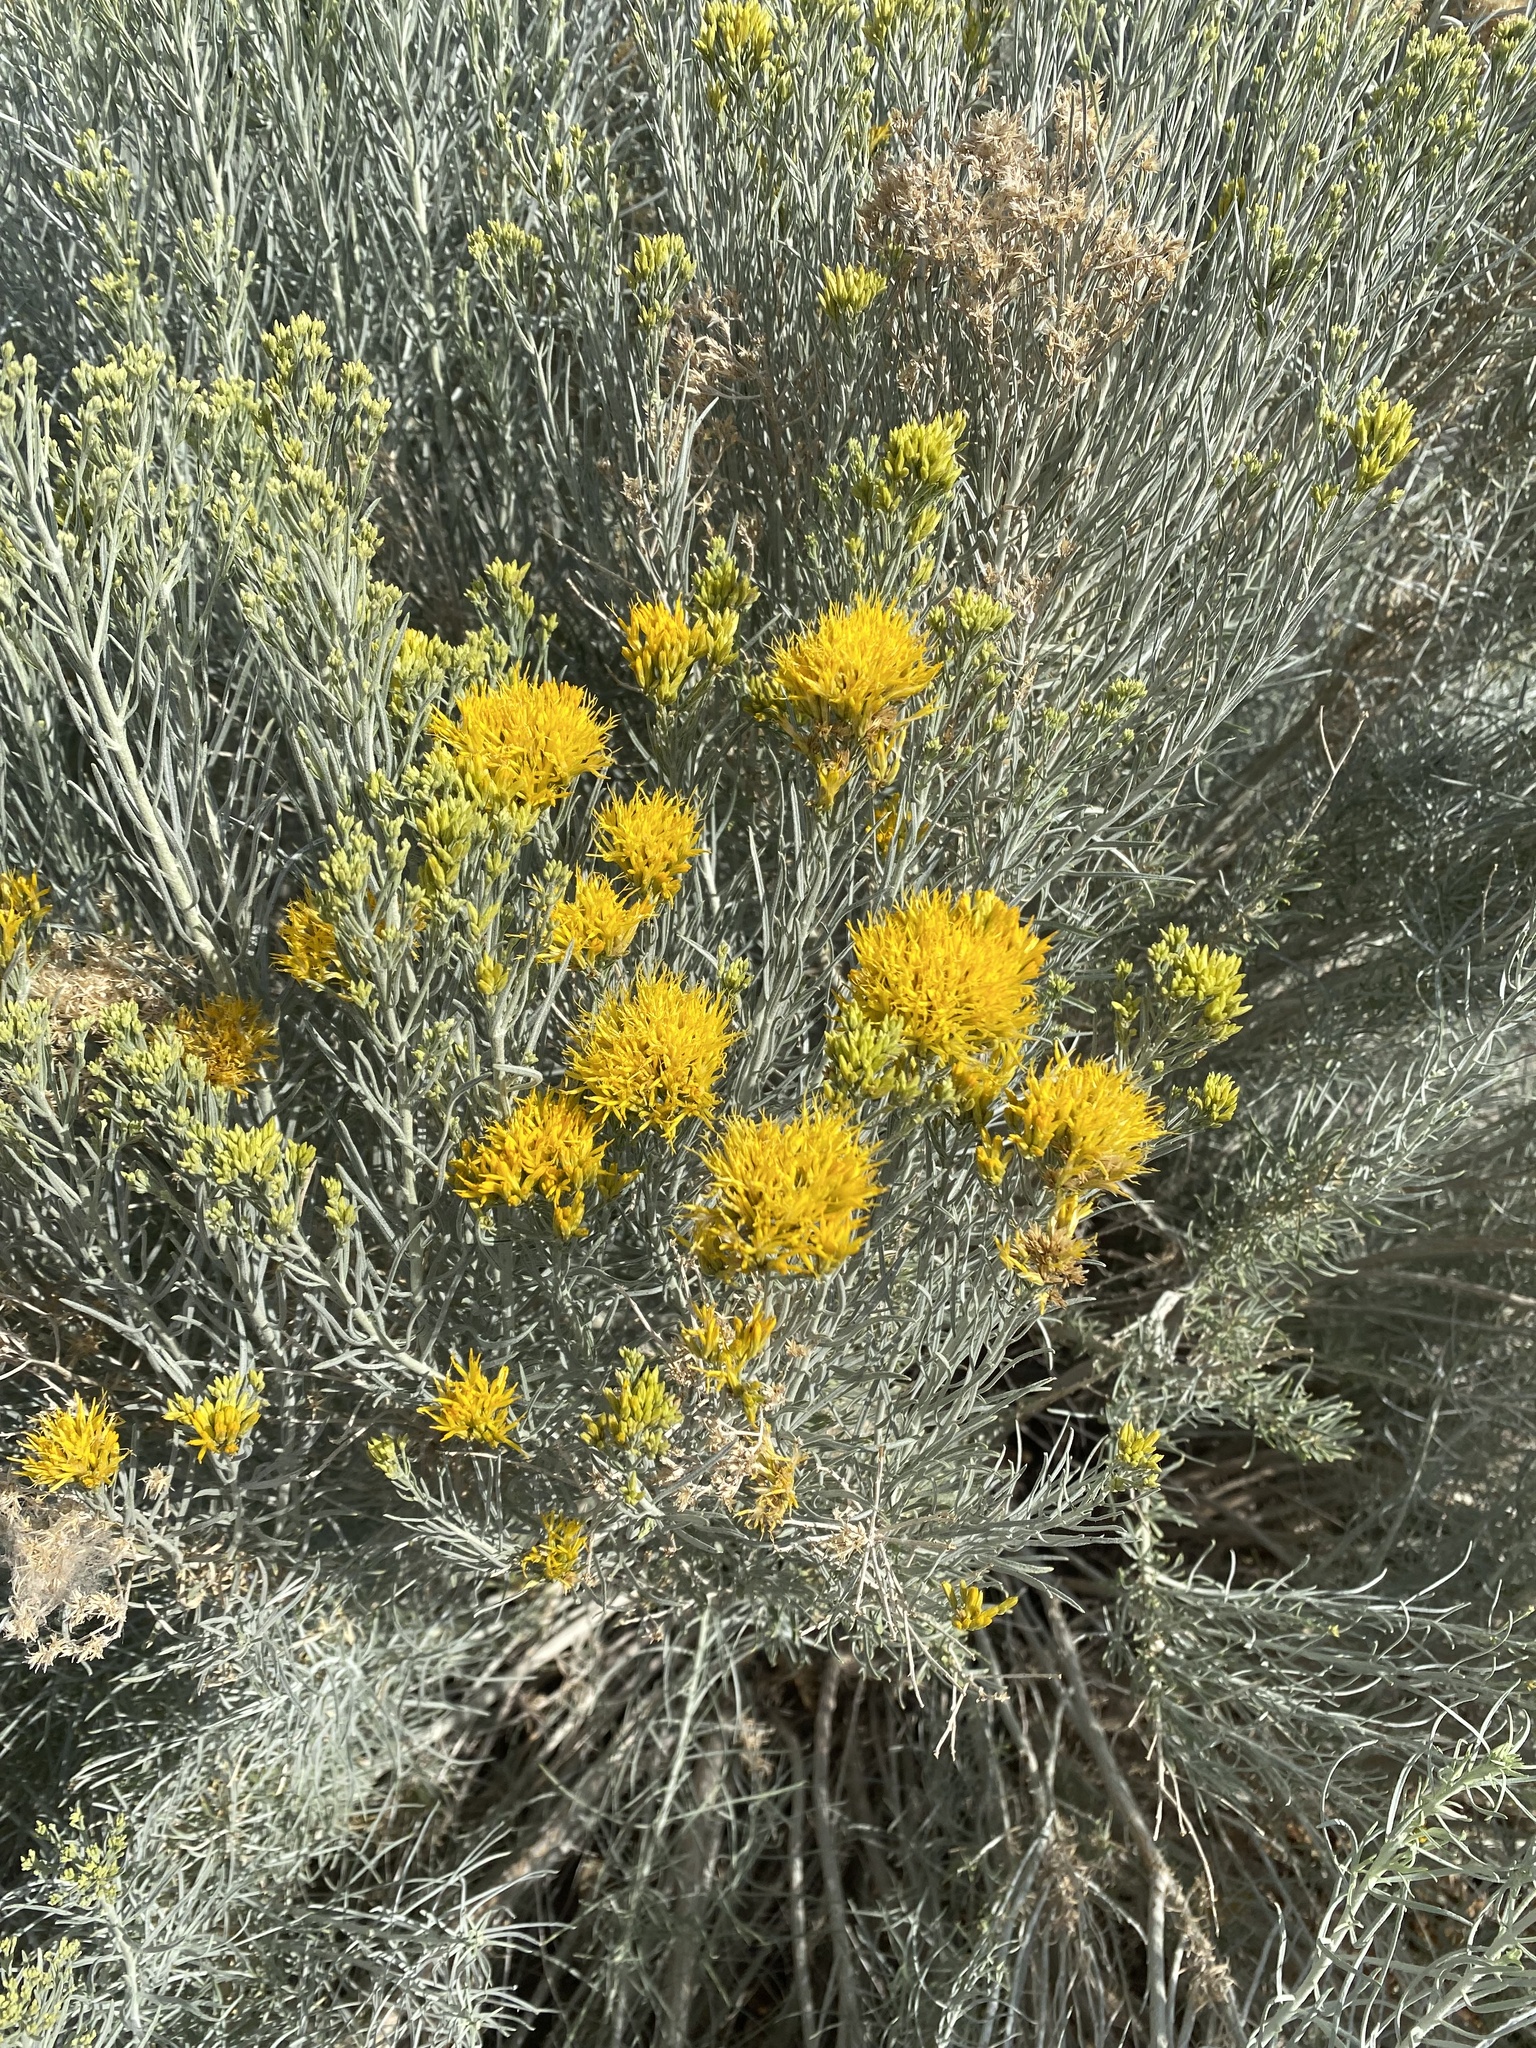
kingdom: Plantae
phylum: Tracheophyta
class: Magnoliopsida
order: Asterales
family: Asteraceae
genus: Ericameria
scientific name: Ericameria nauseosa
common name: Rubber rabbitbrush
